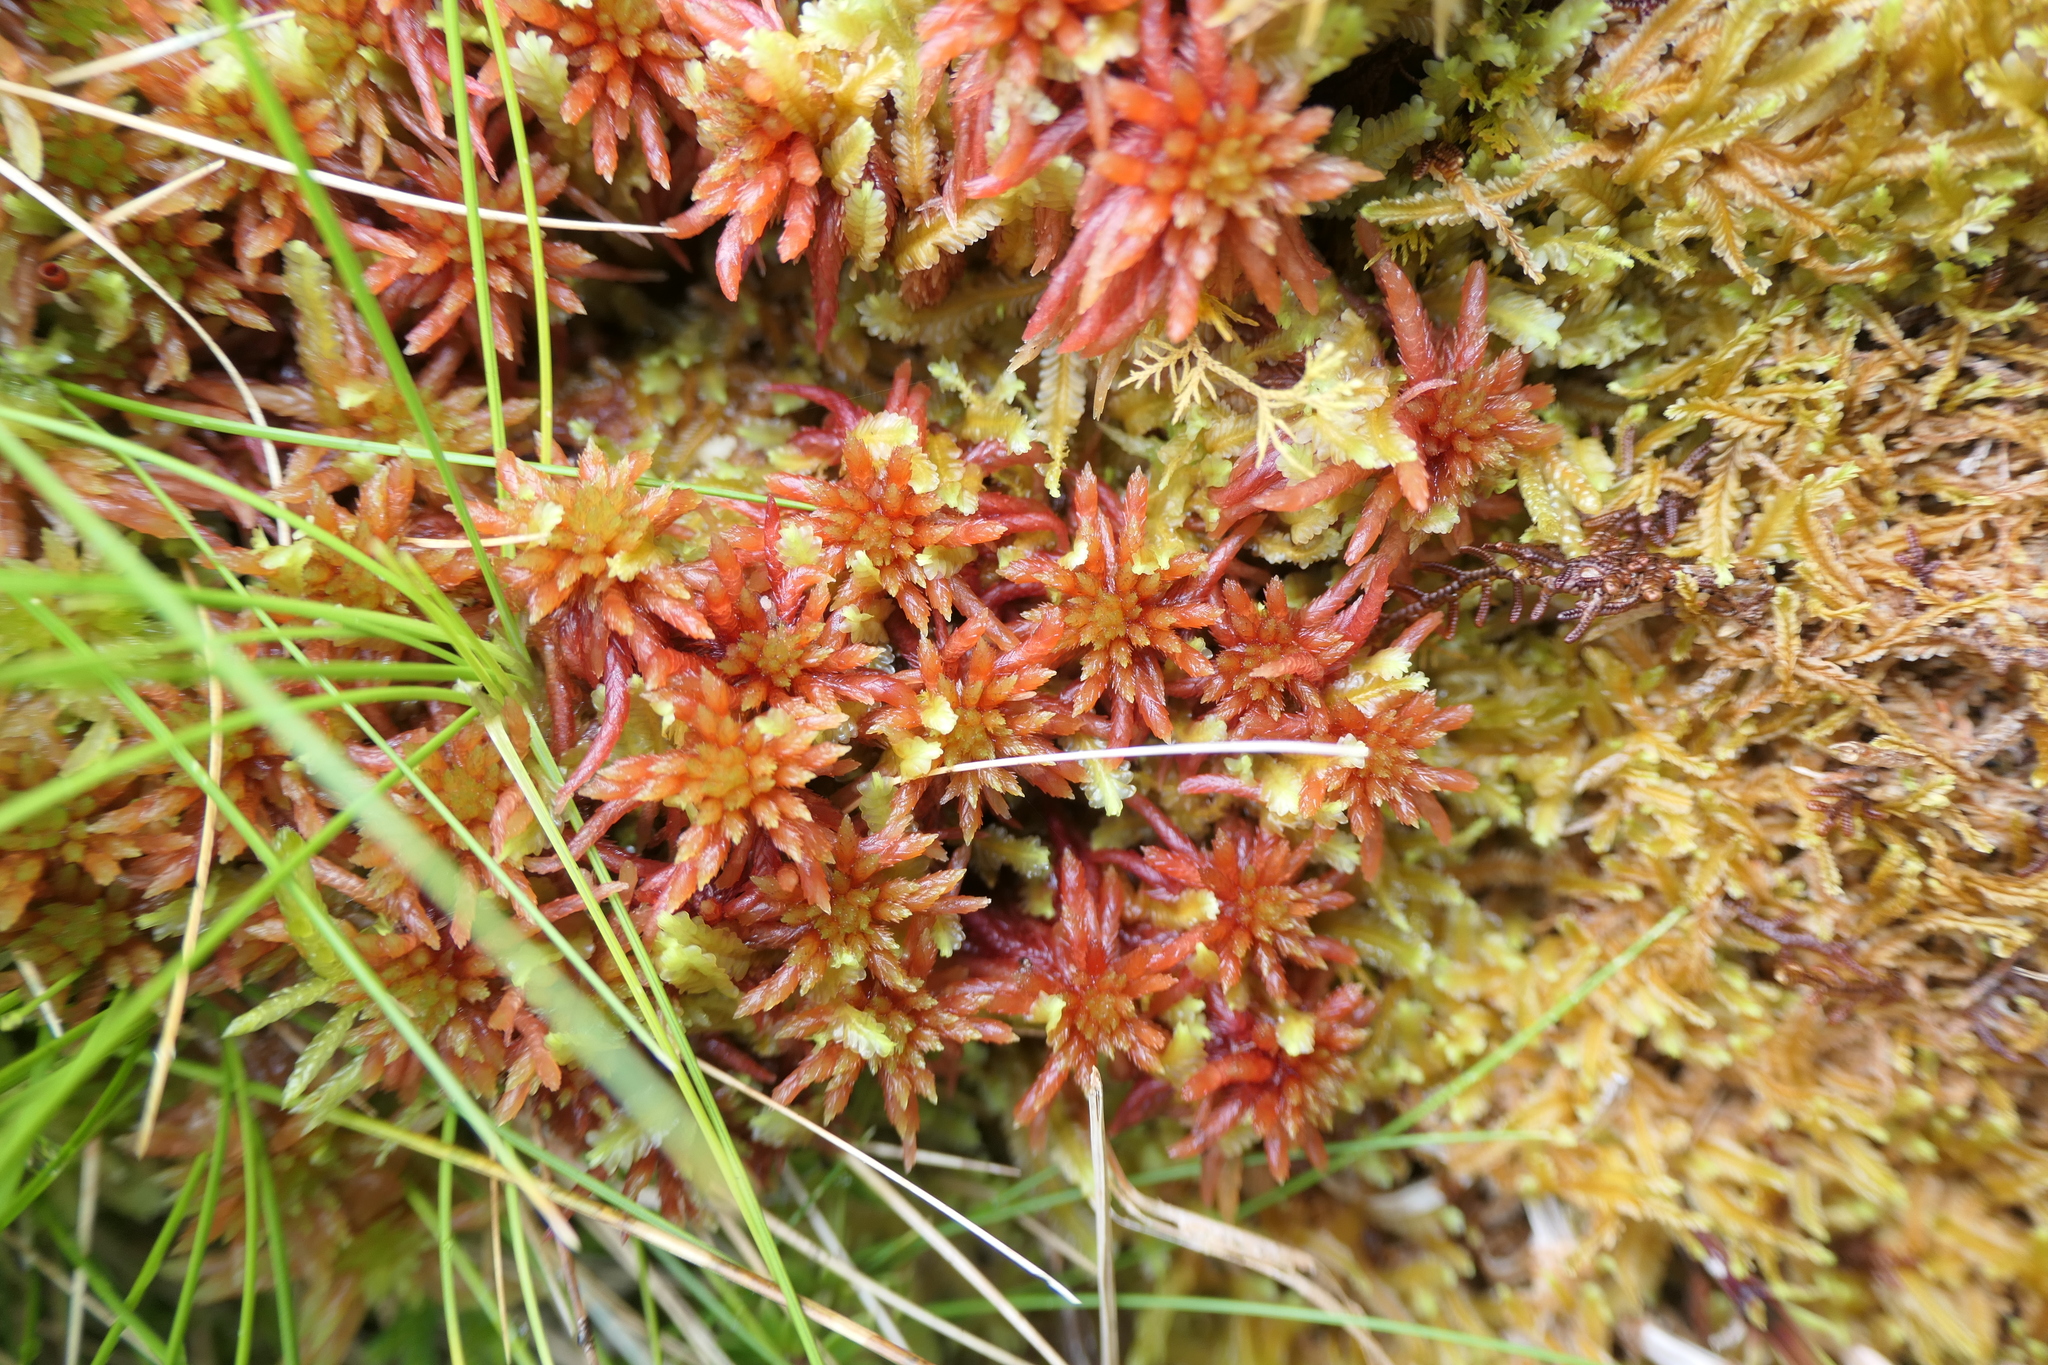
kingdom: Plantae
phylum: Bryophyta
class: Sphagnopsida
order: Sphagnales
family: Sphagnaceae
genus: Sphagnum
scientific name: Sphagnum subnitens
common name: Lustrous bog-moss
